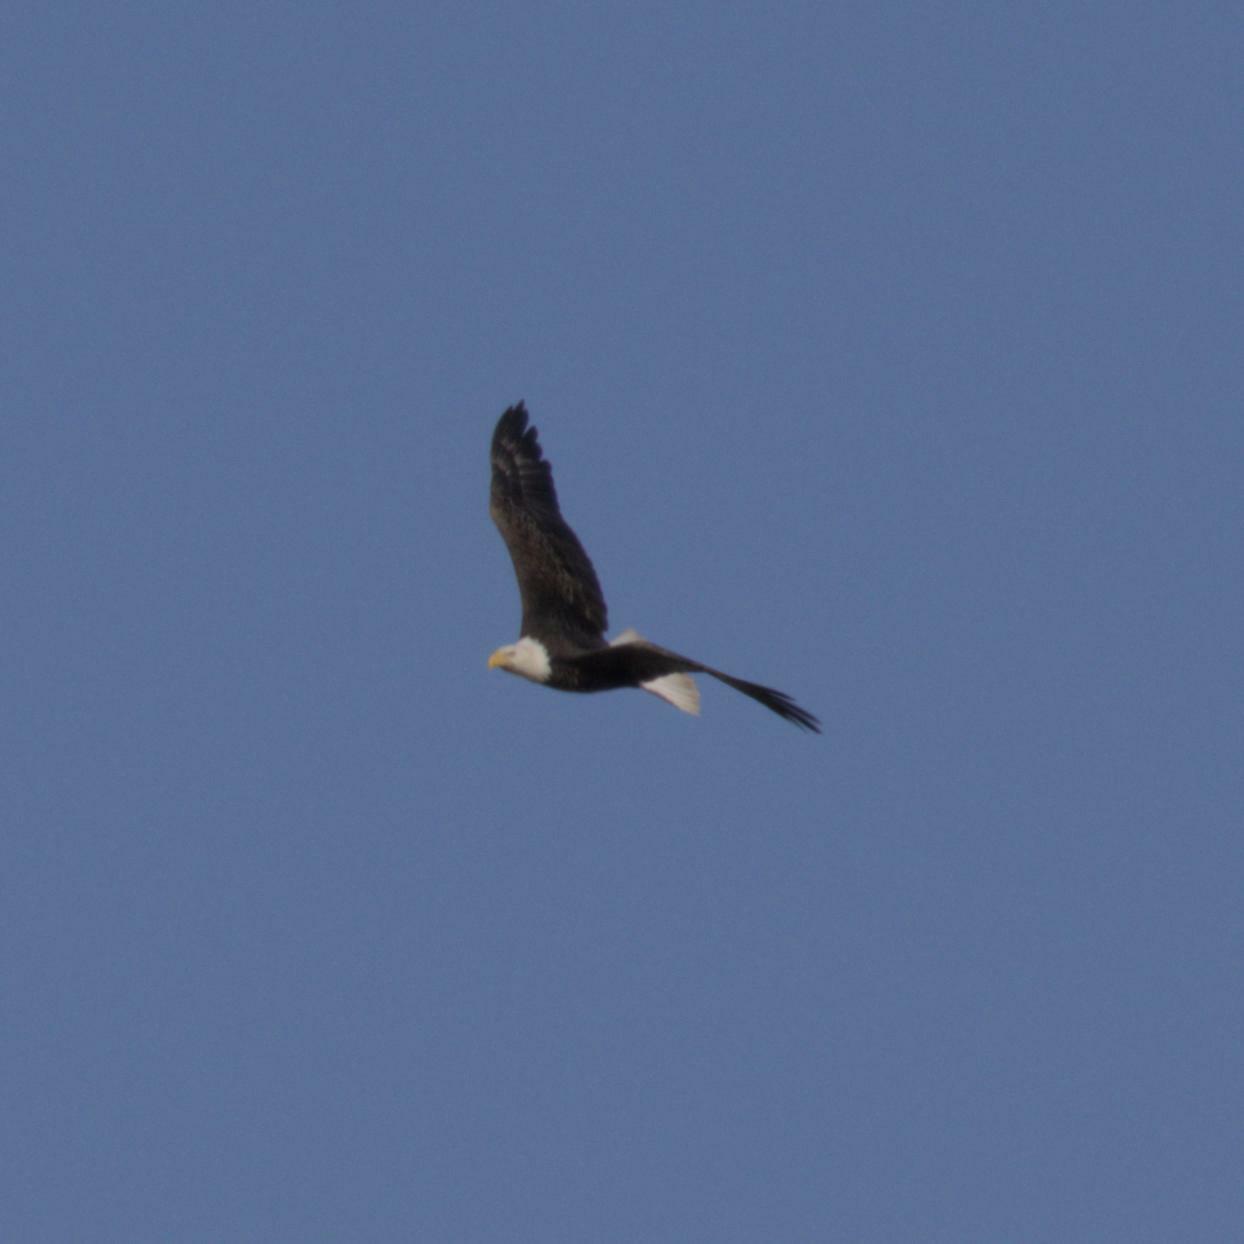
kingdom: Animalia
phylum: Chordata
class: Aves
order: Accipitriformes
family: Accipitridae
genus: Haliaeetus
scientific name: Haliaeetus leucocephalus
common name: Bald eagle
